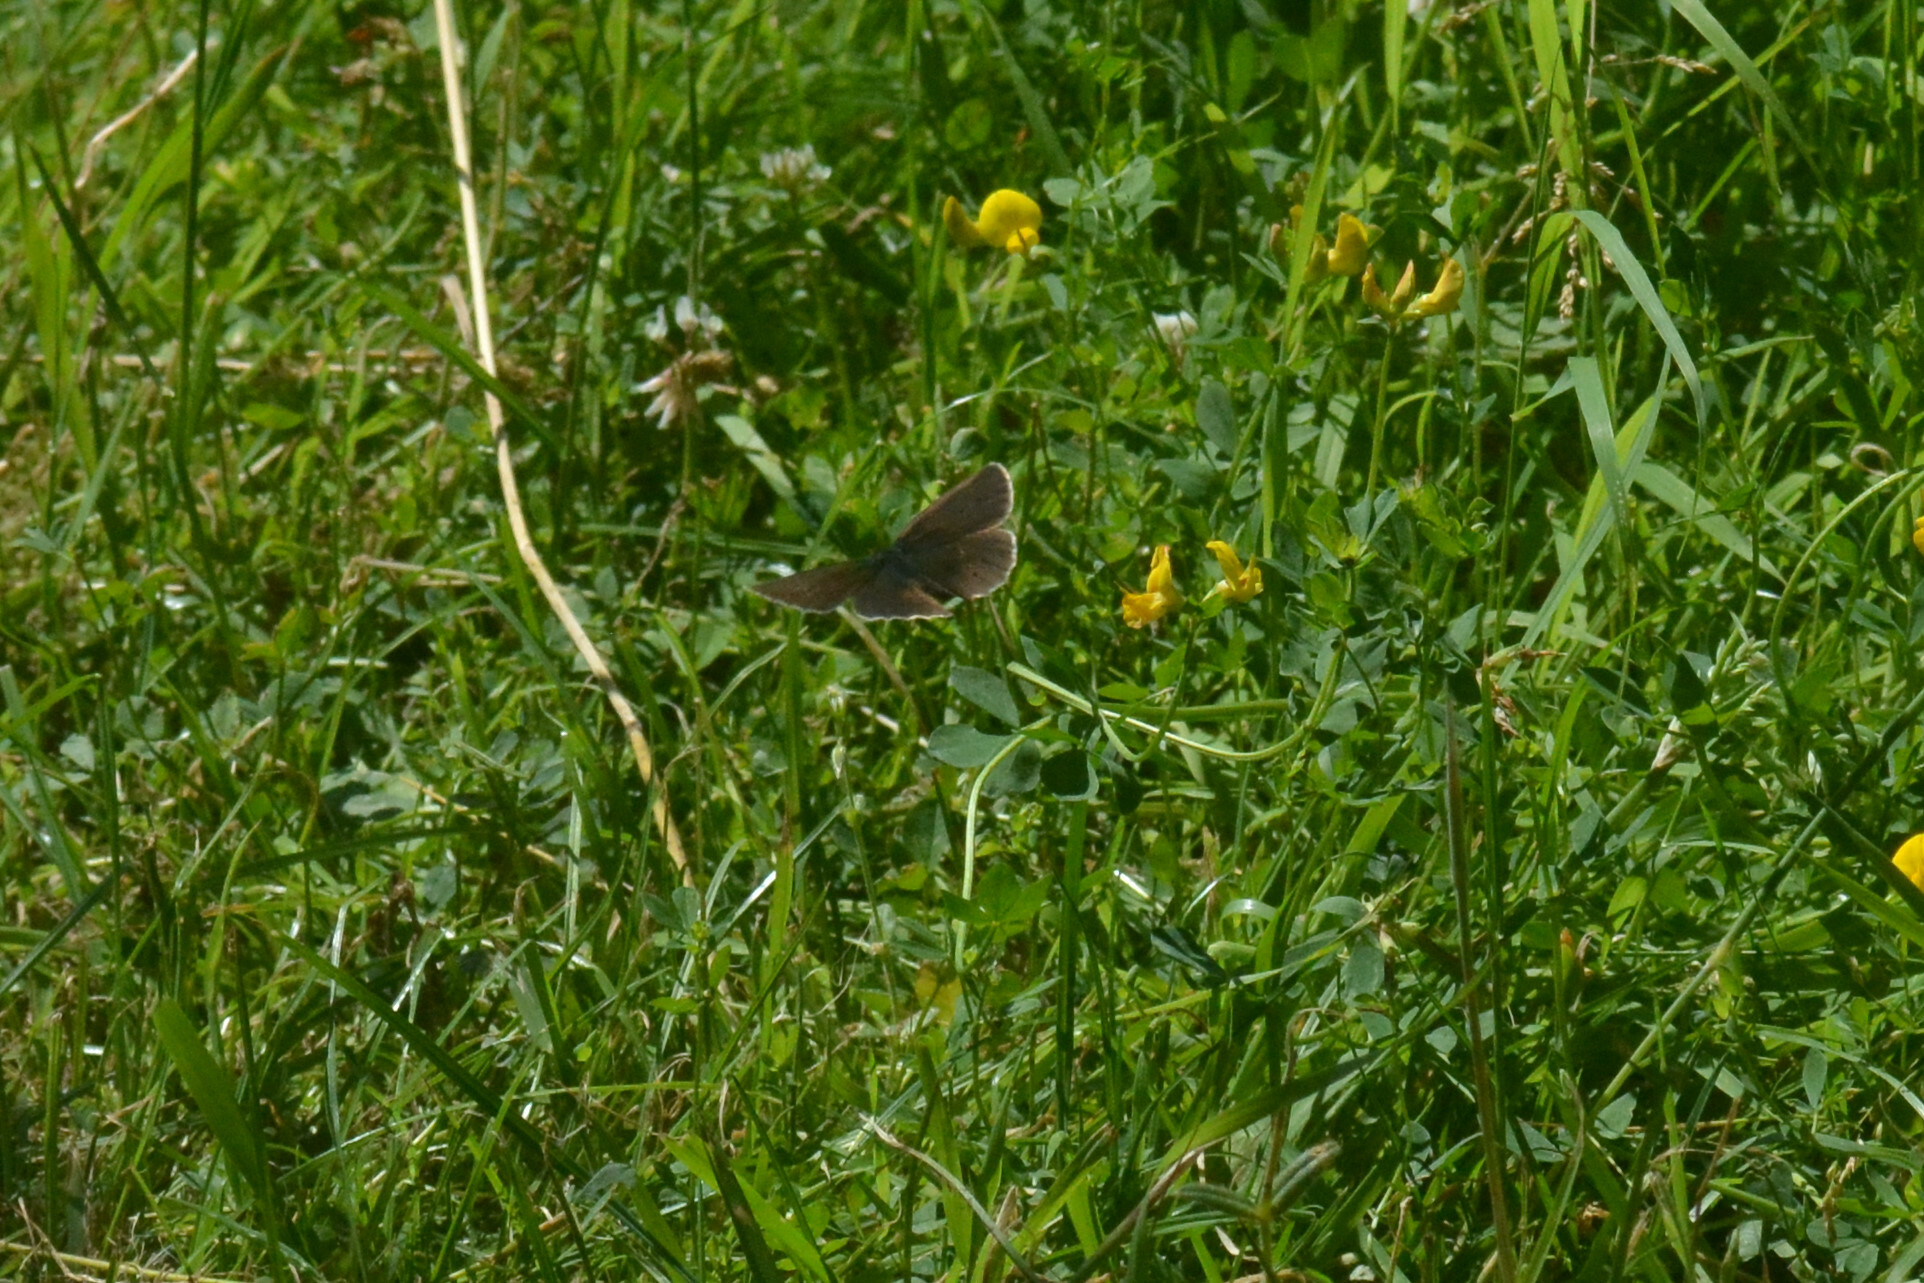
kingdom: Animalia
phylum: Arthropoda
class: Insecta
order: Lepidoptera
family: Nymphalidae
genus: Aphantopus
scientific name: Aphantopus hyperantus
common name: Ringlet
